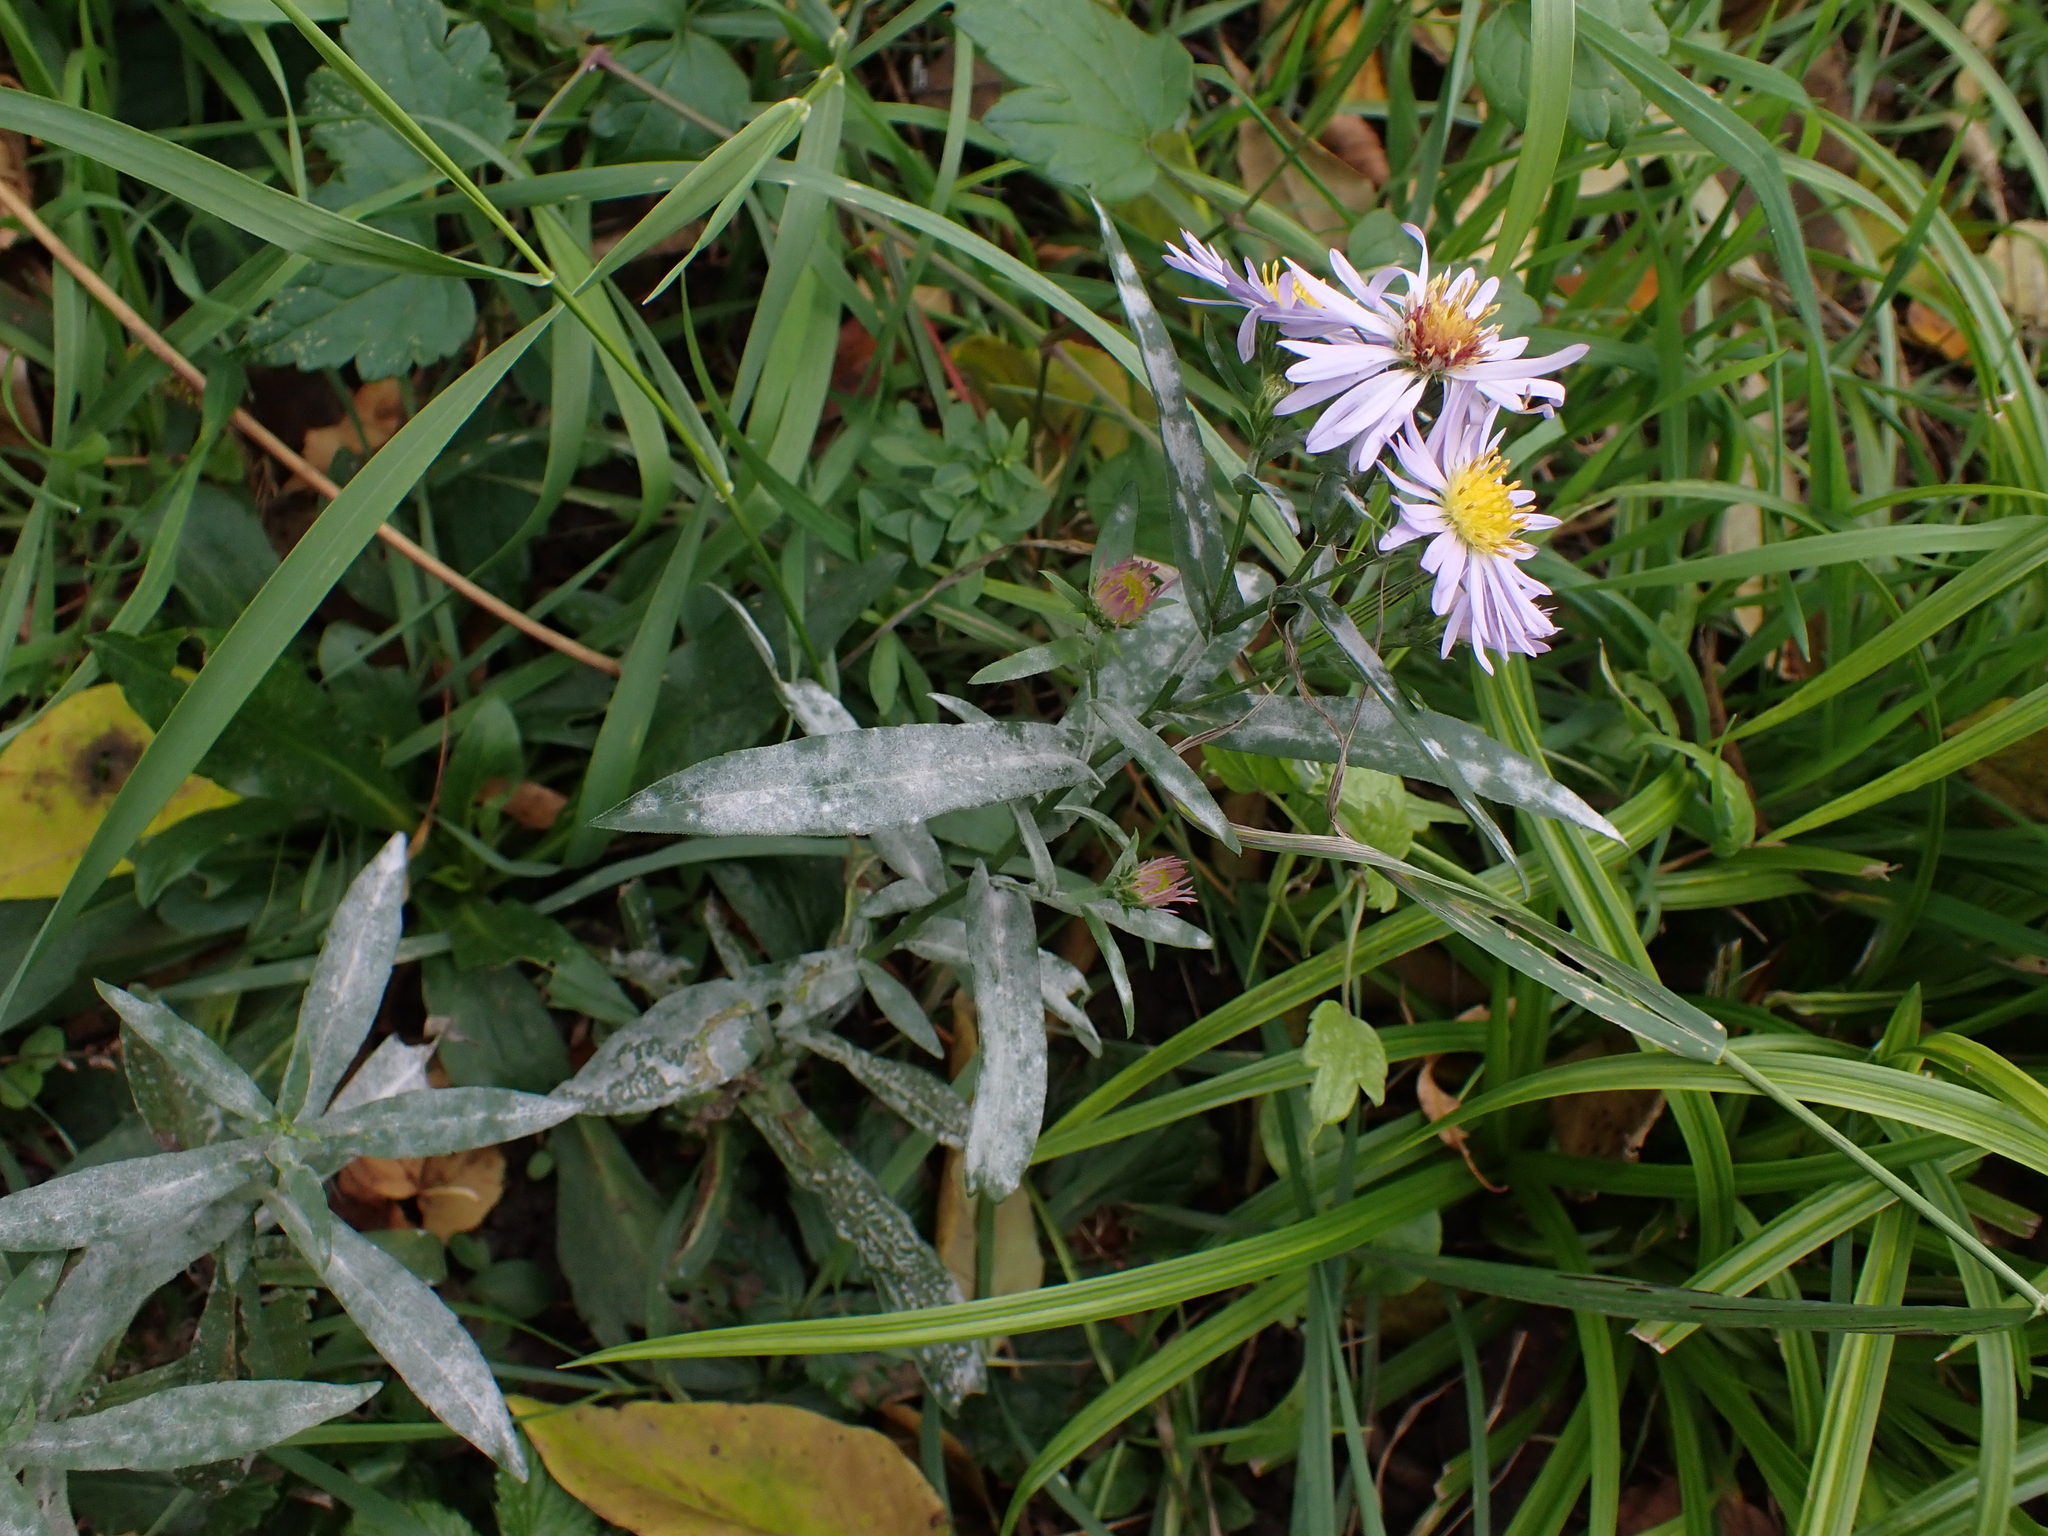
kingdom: Fungi
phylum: Ascomycota
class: Leotiomycetes
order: Helotiales
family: Erysiphaceae
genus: Golovinomyces
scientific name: Golovinomyces asterum
